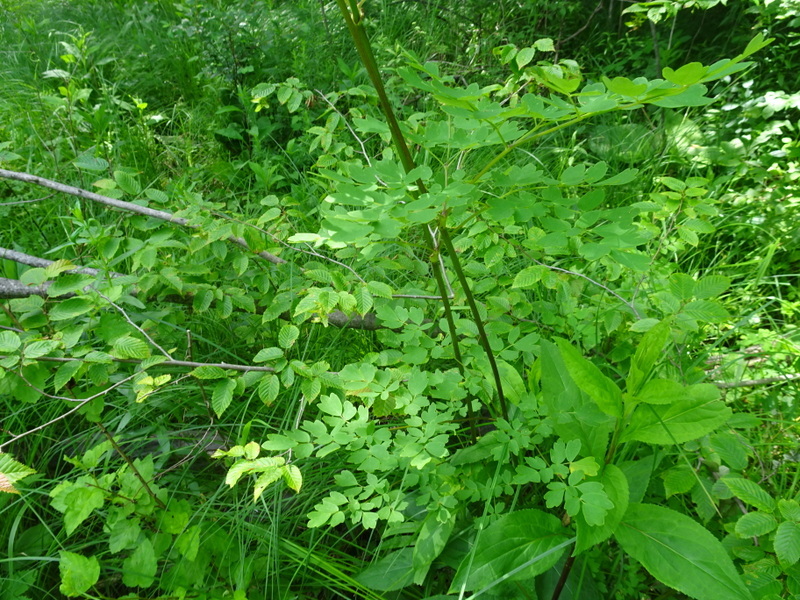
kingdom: Plantae
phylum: Tracheophyta
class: Magnoliopsida
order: Ranunculales
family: Ranunculaceae
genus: Thalictrum
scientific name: Thalictrum dasycarpum
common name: Purple meadow-rue
